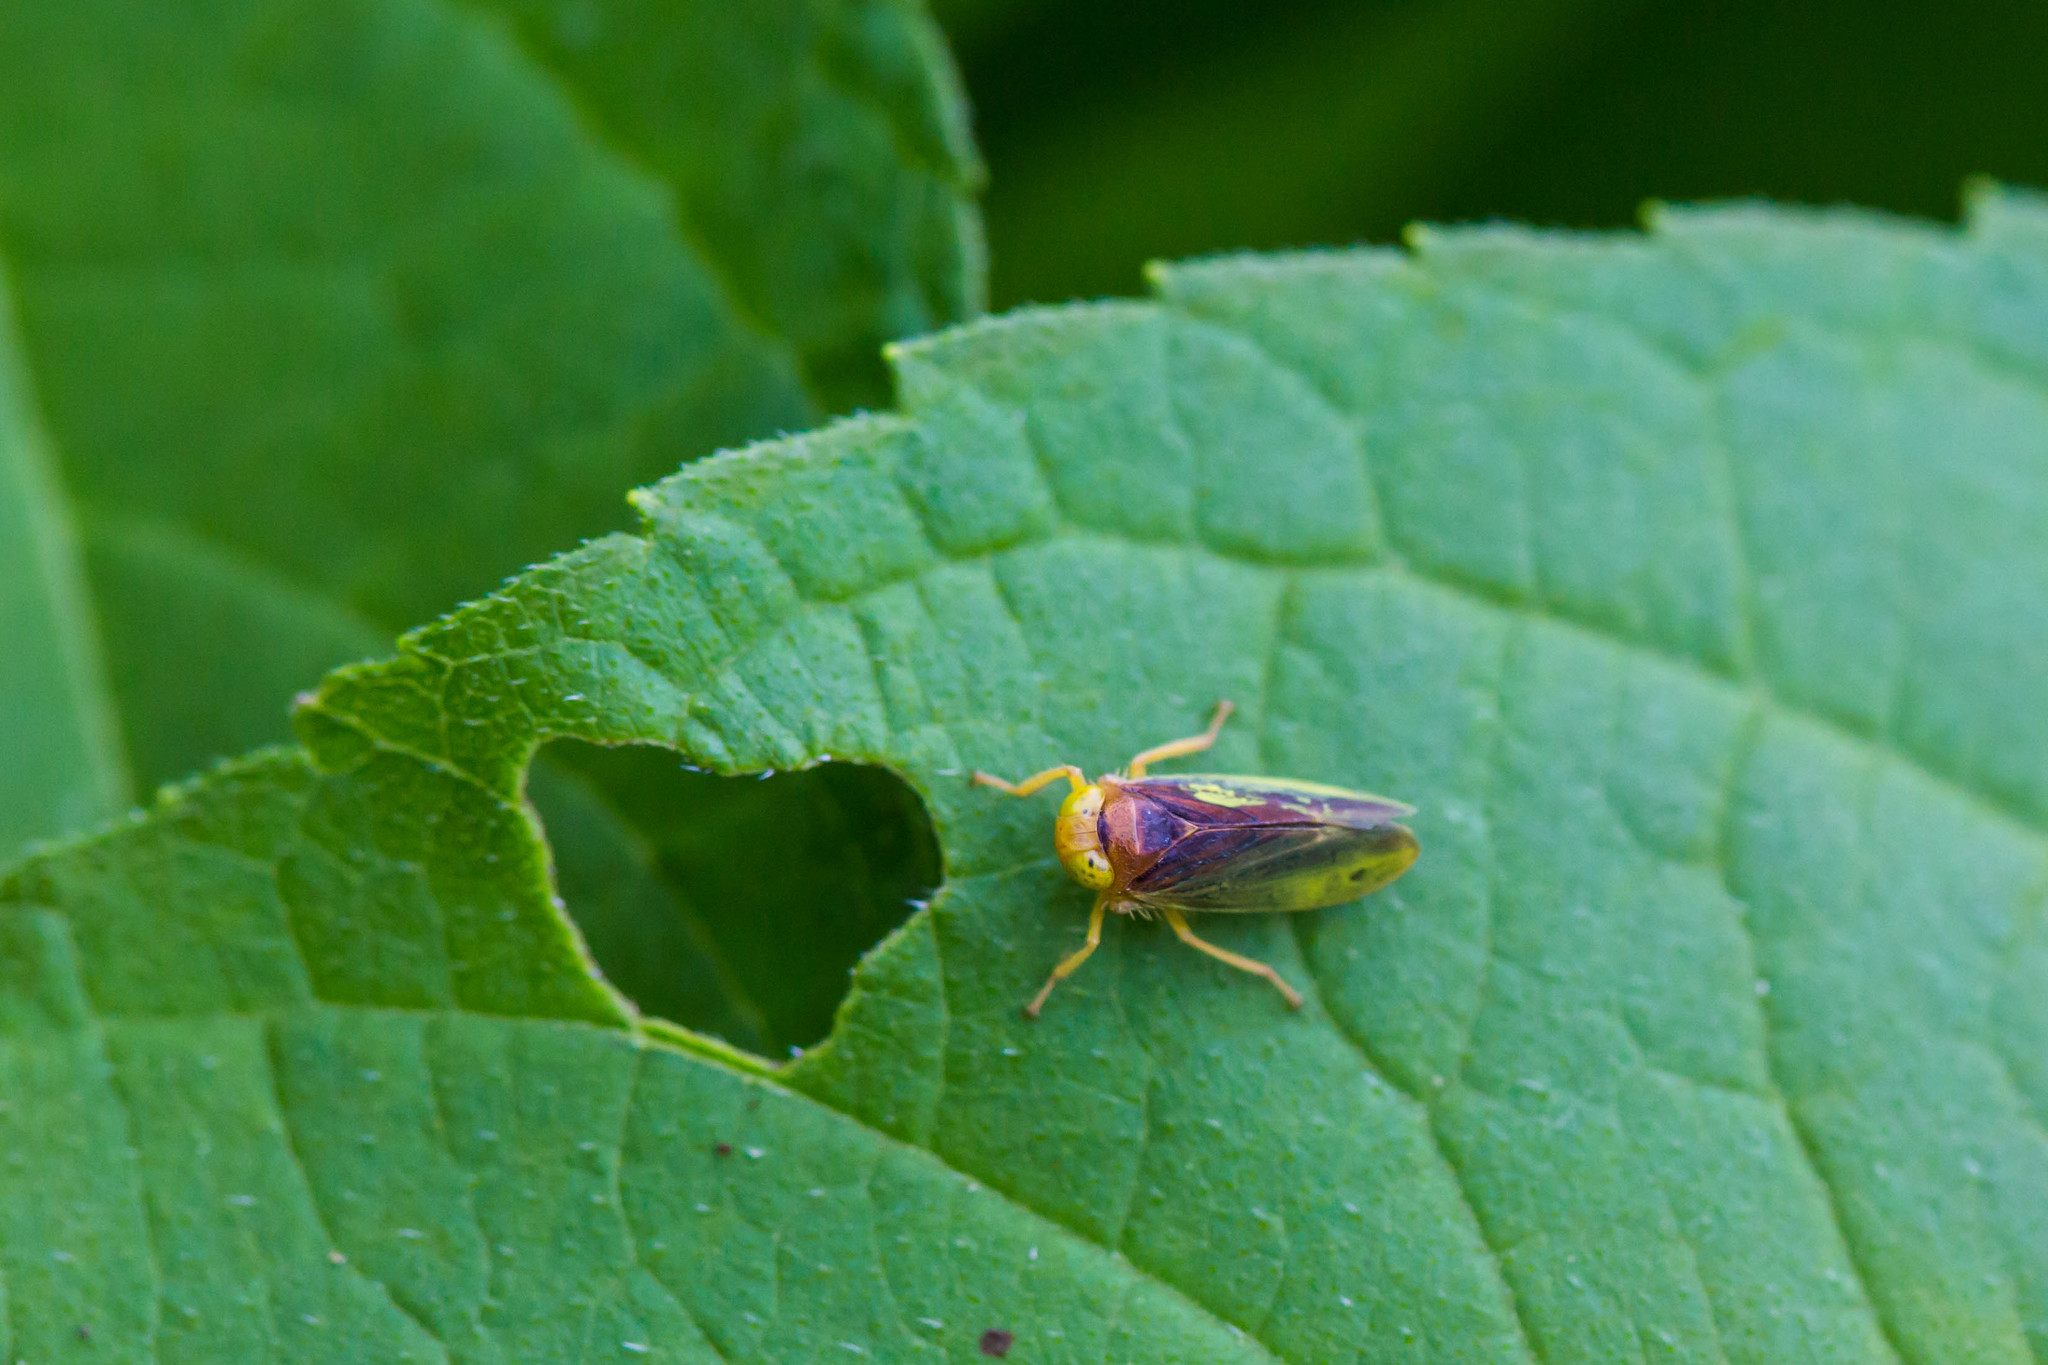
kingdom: Animalia
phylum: Arthropoda
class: Insecta
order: Hemiptera
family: Cicadellidae
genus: Jikradia
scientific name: Jikradia olitoria
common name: Coppery leafhopper
